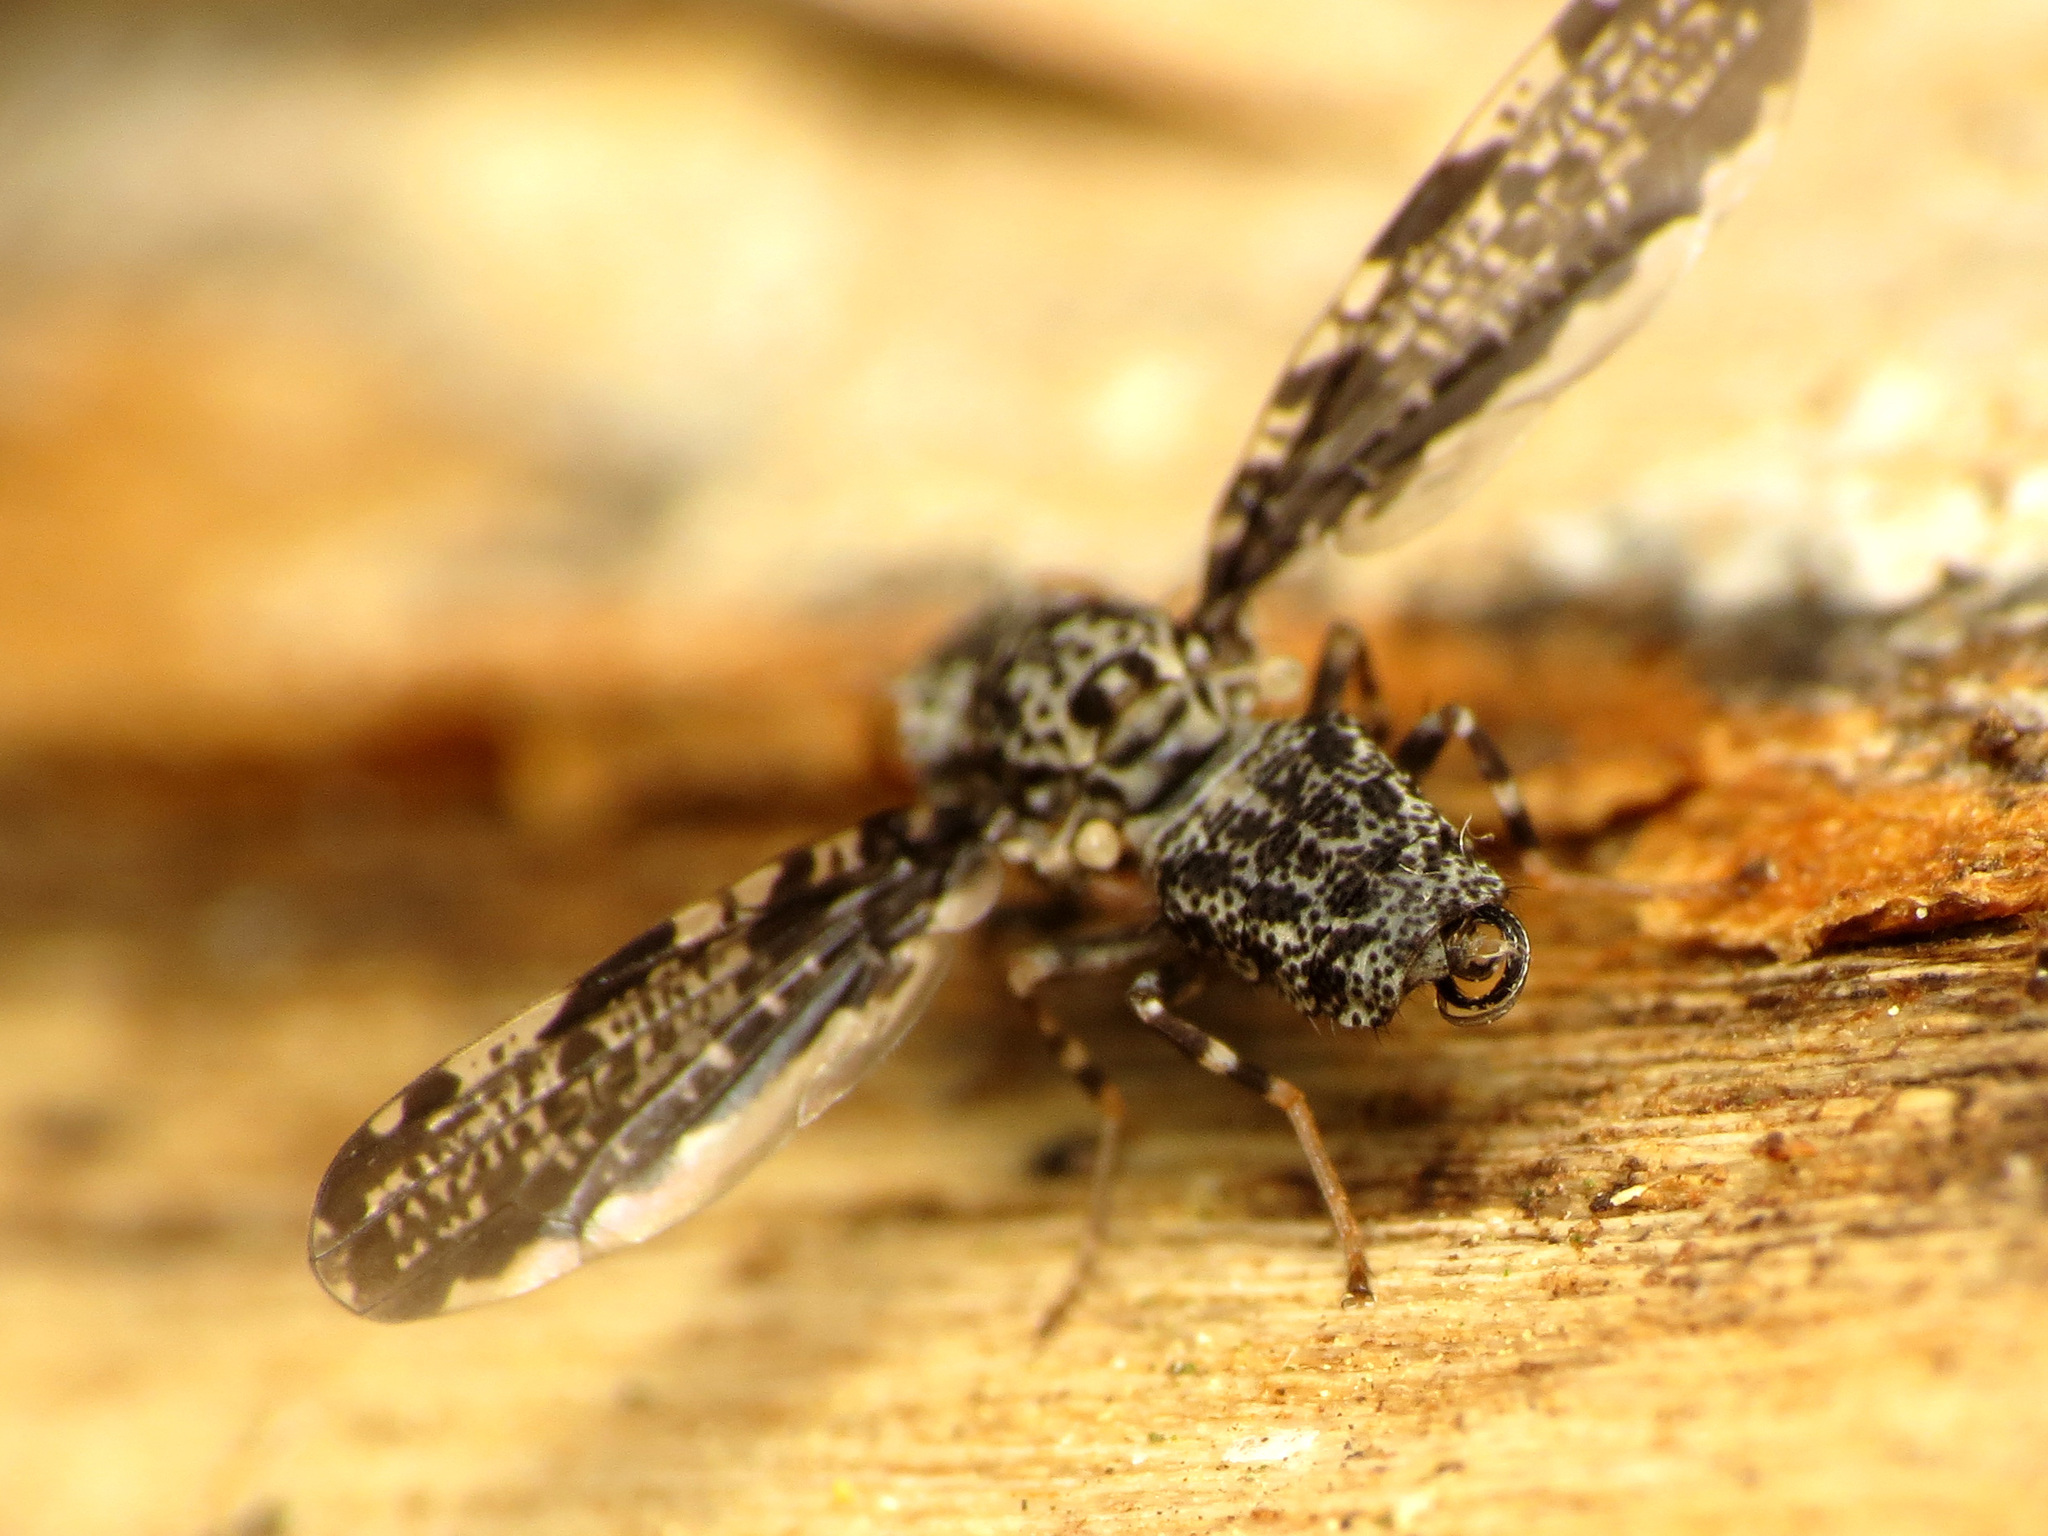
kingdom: Animalia
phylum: Arthropoda
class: Insecta
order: Diptera
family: Ulidiidae
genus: Callopistromyia
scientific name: Callopistromyia strigula
